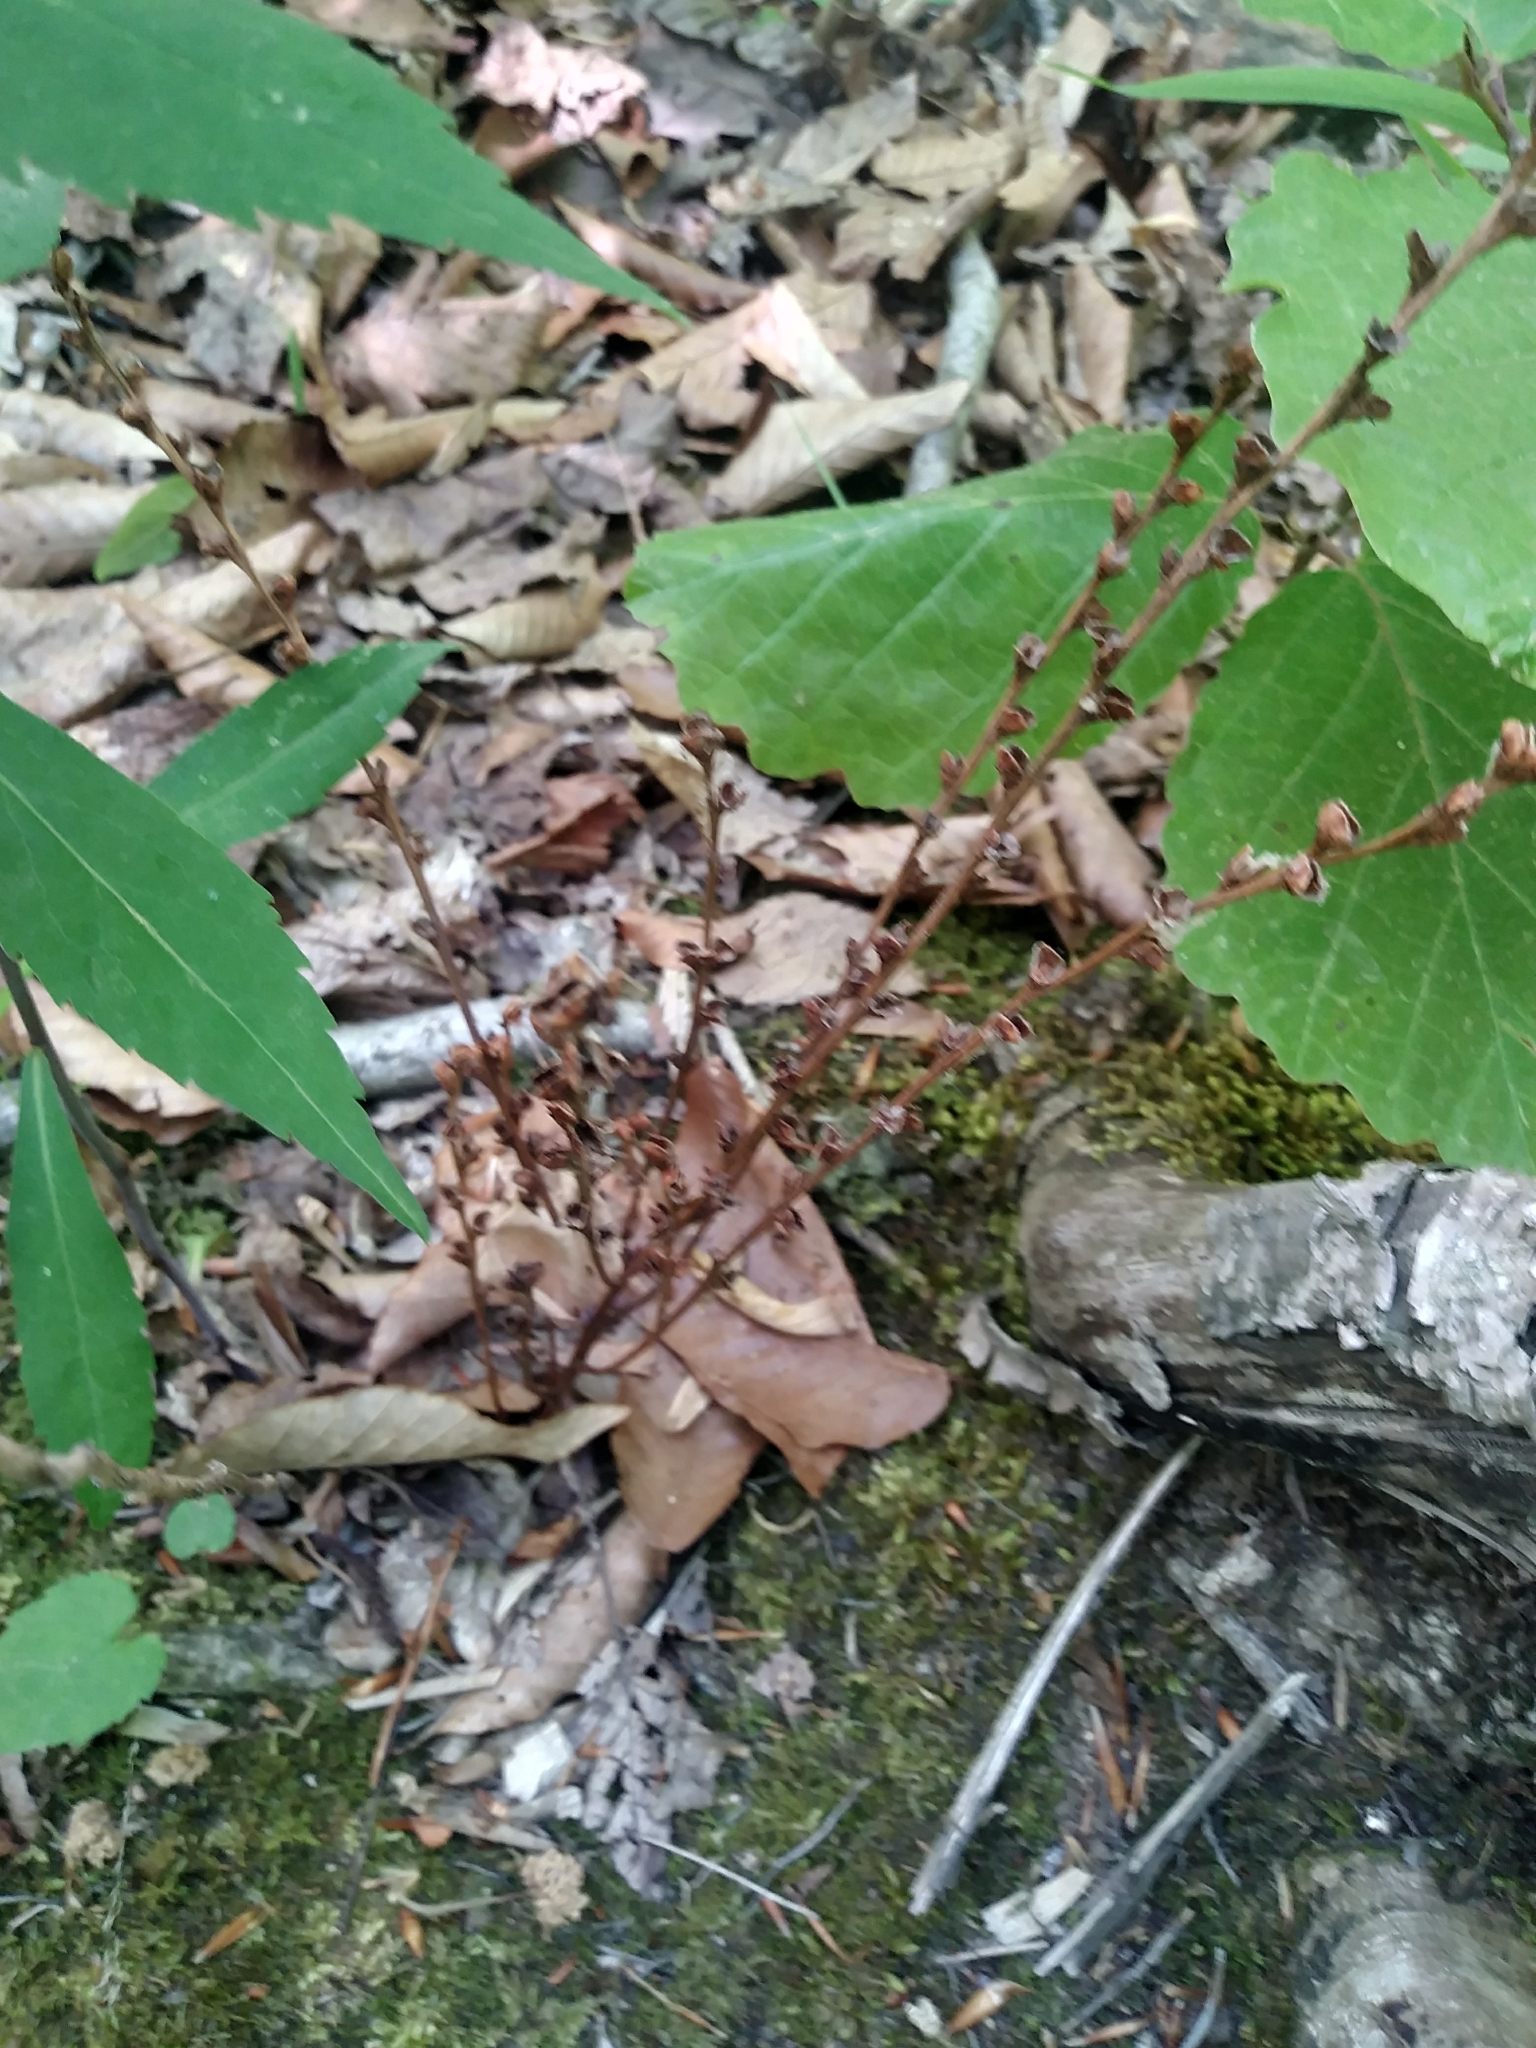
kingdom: Plantae
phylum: Tracheophyta
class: Magnoliopsida
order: Lamiales
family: Orobanchaceae
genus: Epifagus
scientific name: Epifagus virginiana
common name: Beechdrops
